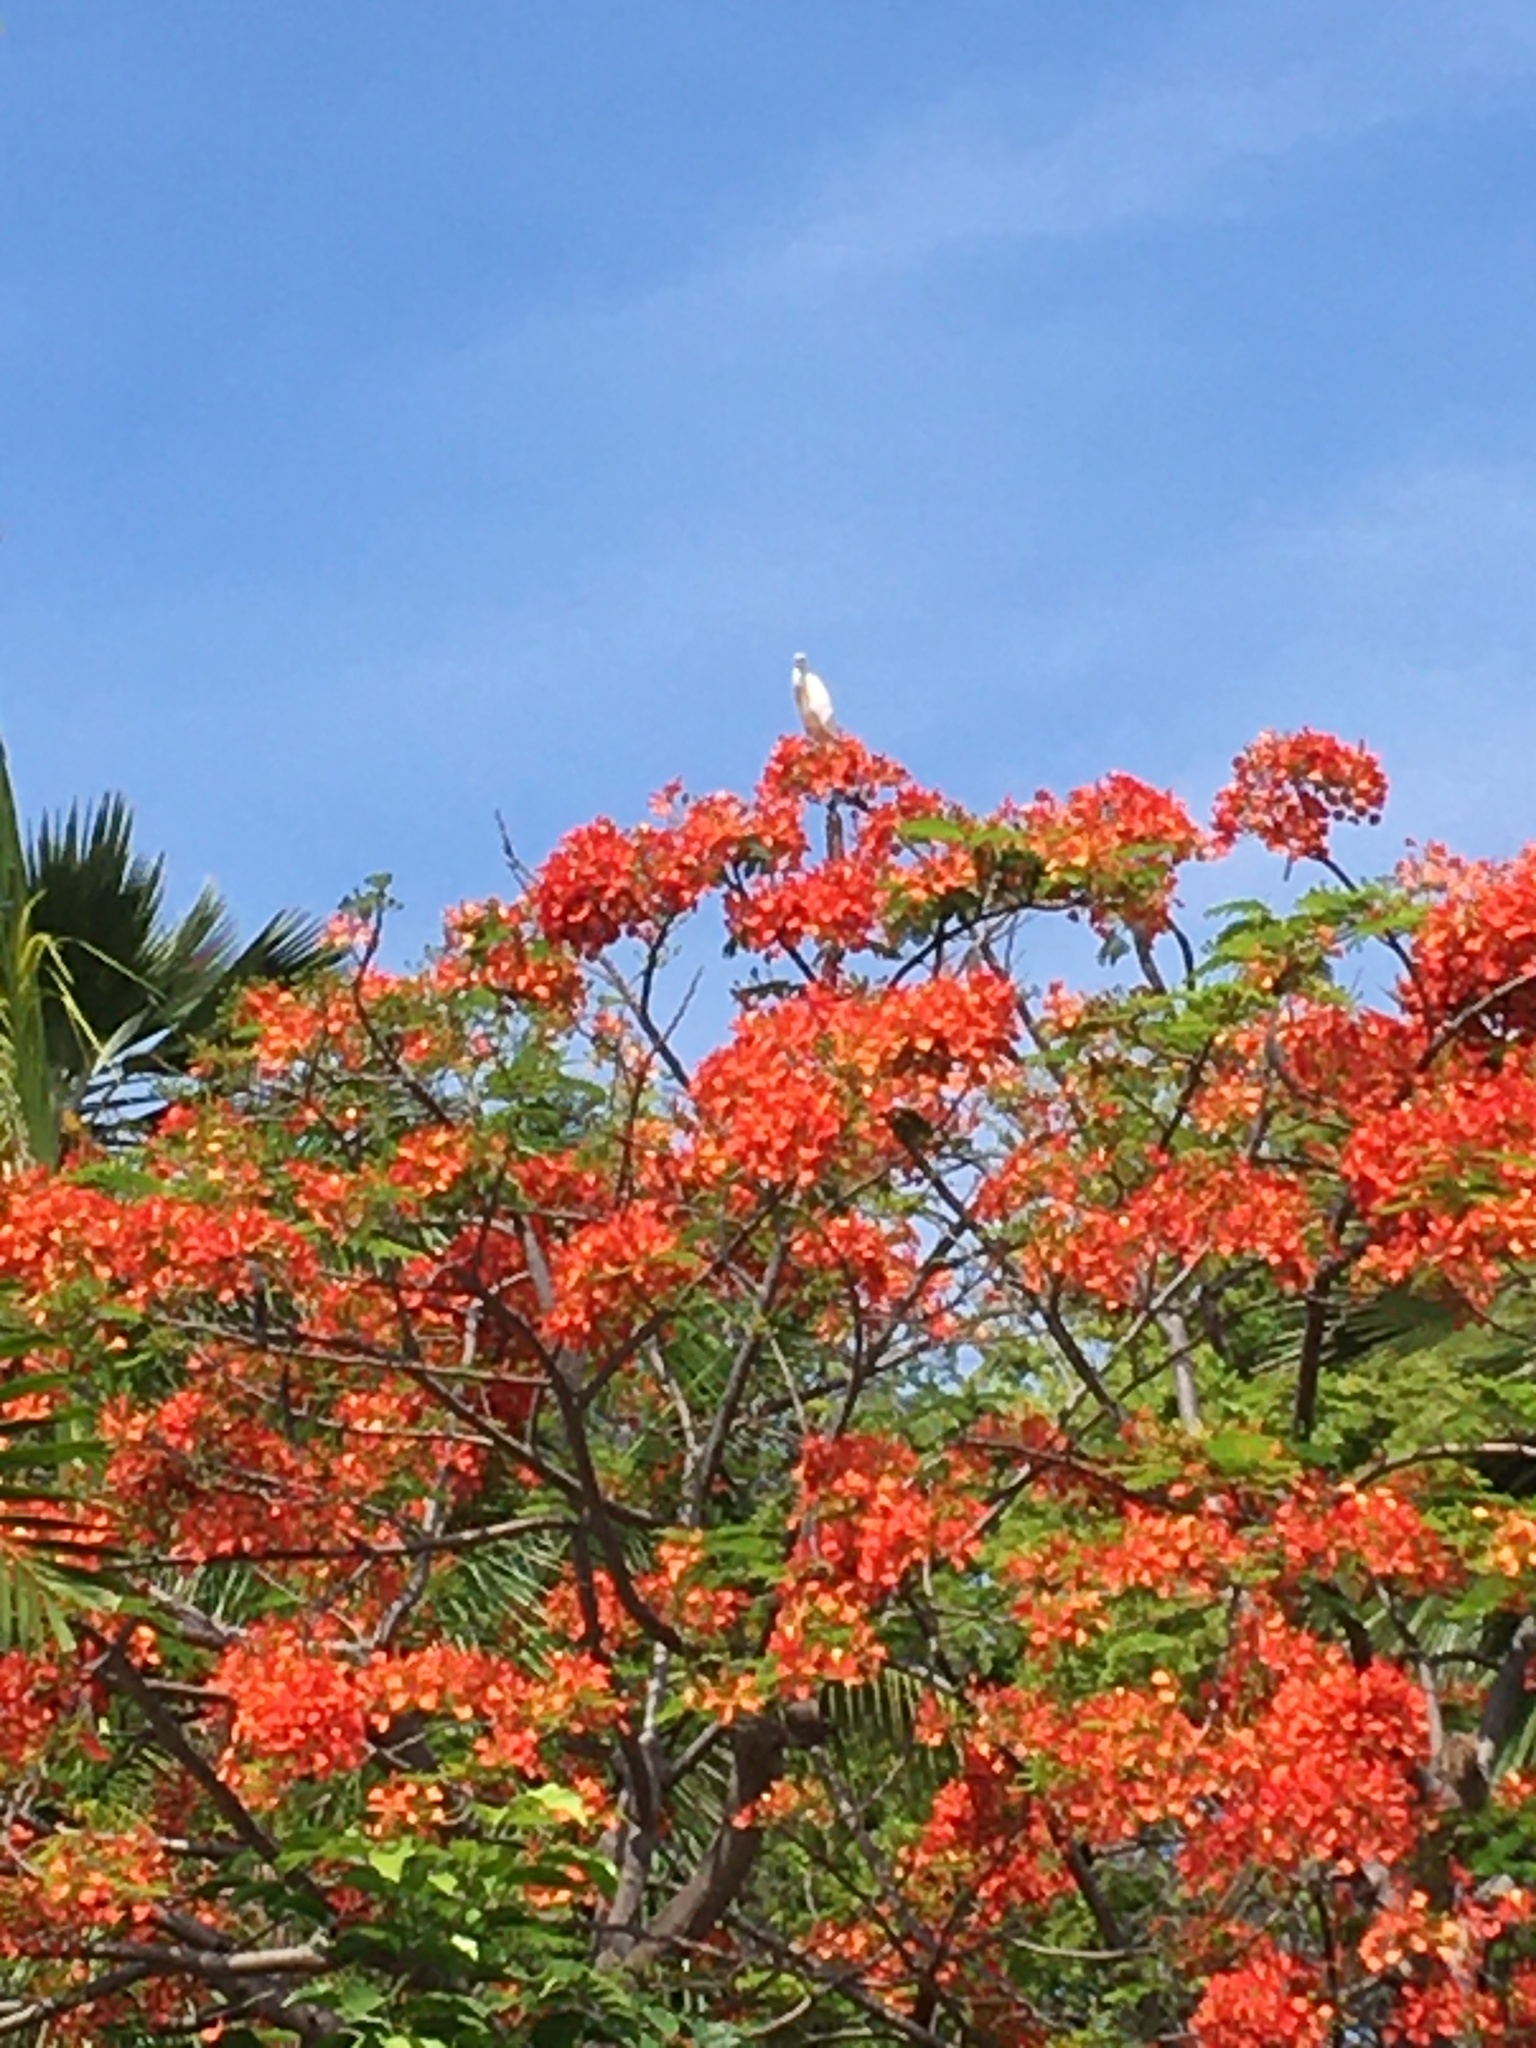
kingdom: Animalia
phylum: Chordata
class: Aves
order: Pelecaniformes
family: Ardeidae
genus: Bubulcus
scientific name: Bubulcus ibis
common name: Cattle egret
